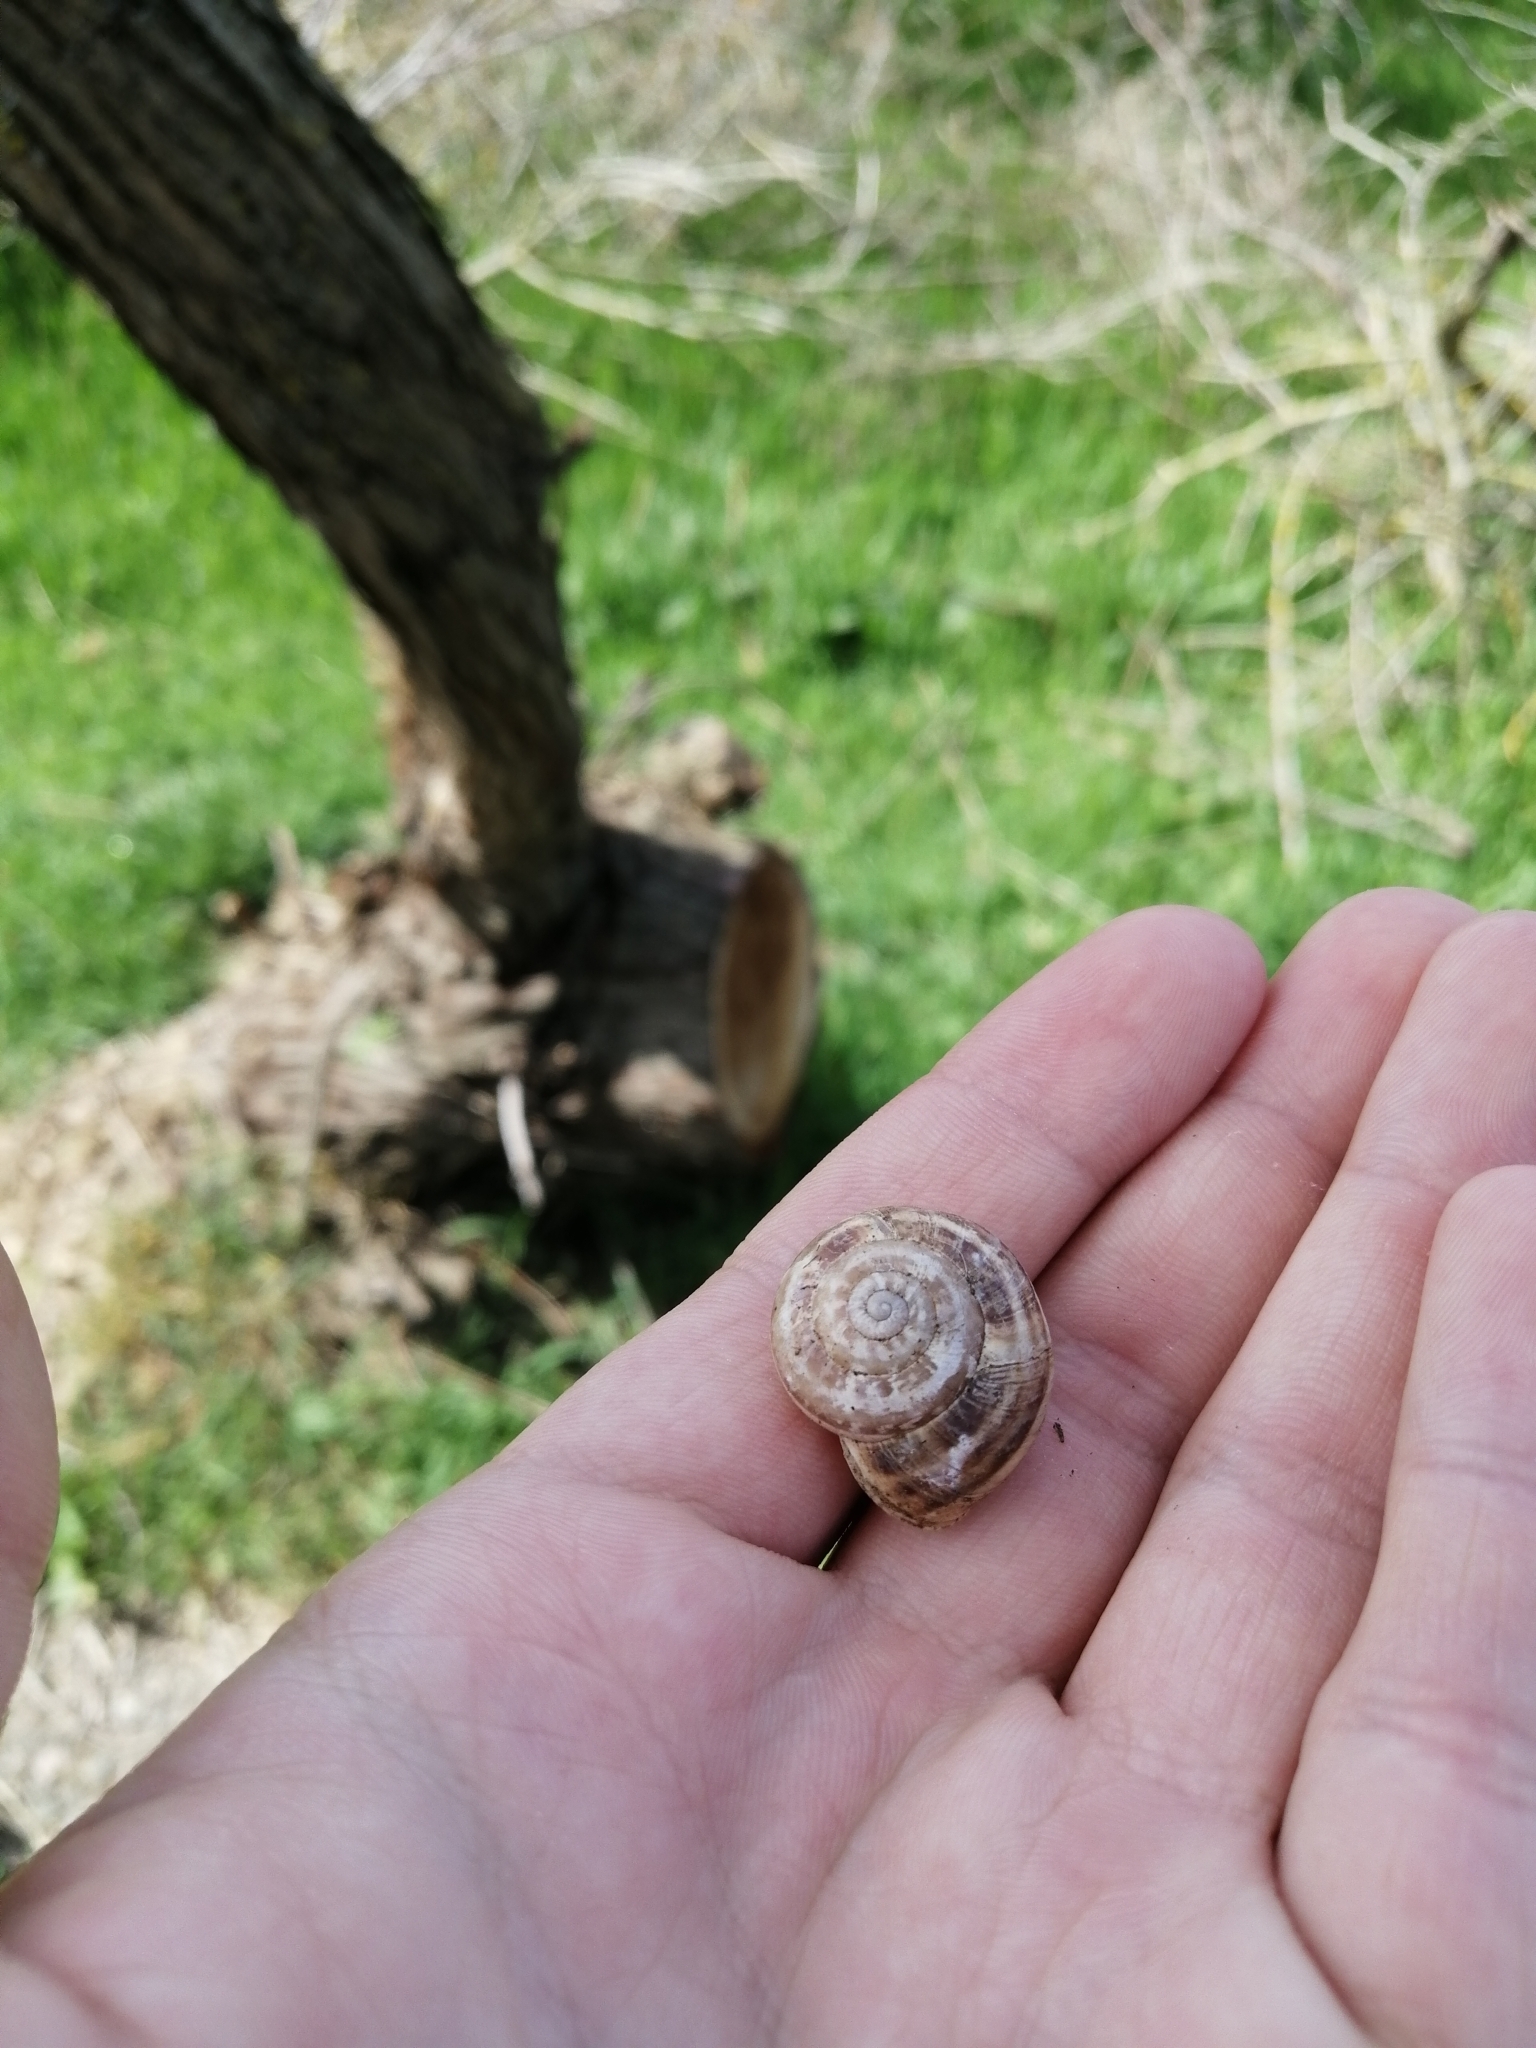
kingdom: Animalia
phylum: Mollusca
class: Gastropoda
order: Stylommatophora
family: Helicidae
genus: Eobania
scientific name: Eobania vermiculata
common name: Chocolateband snail
